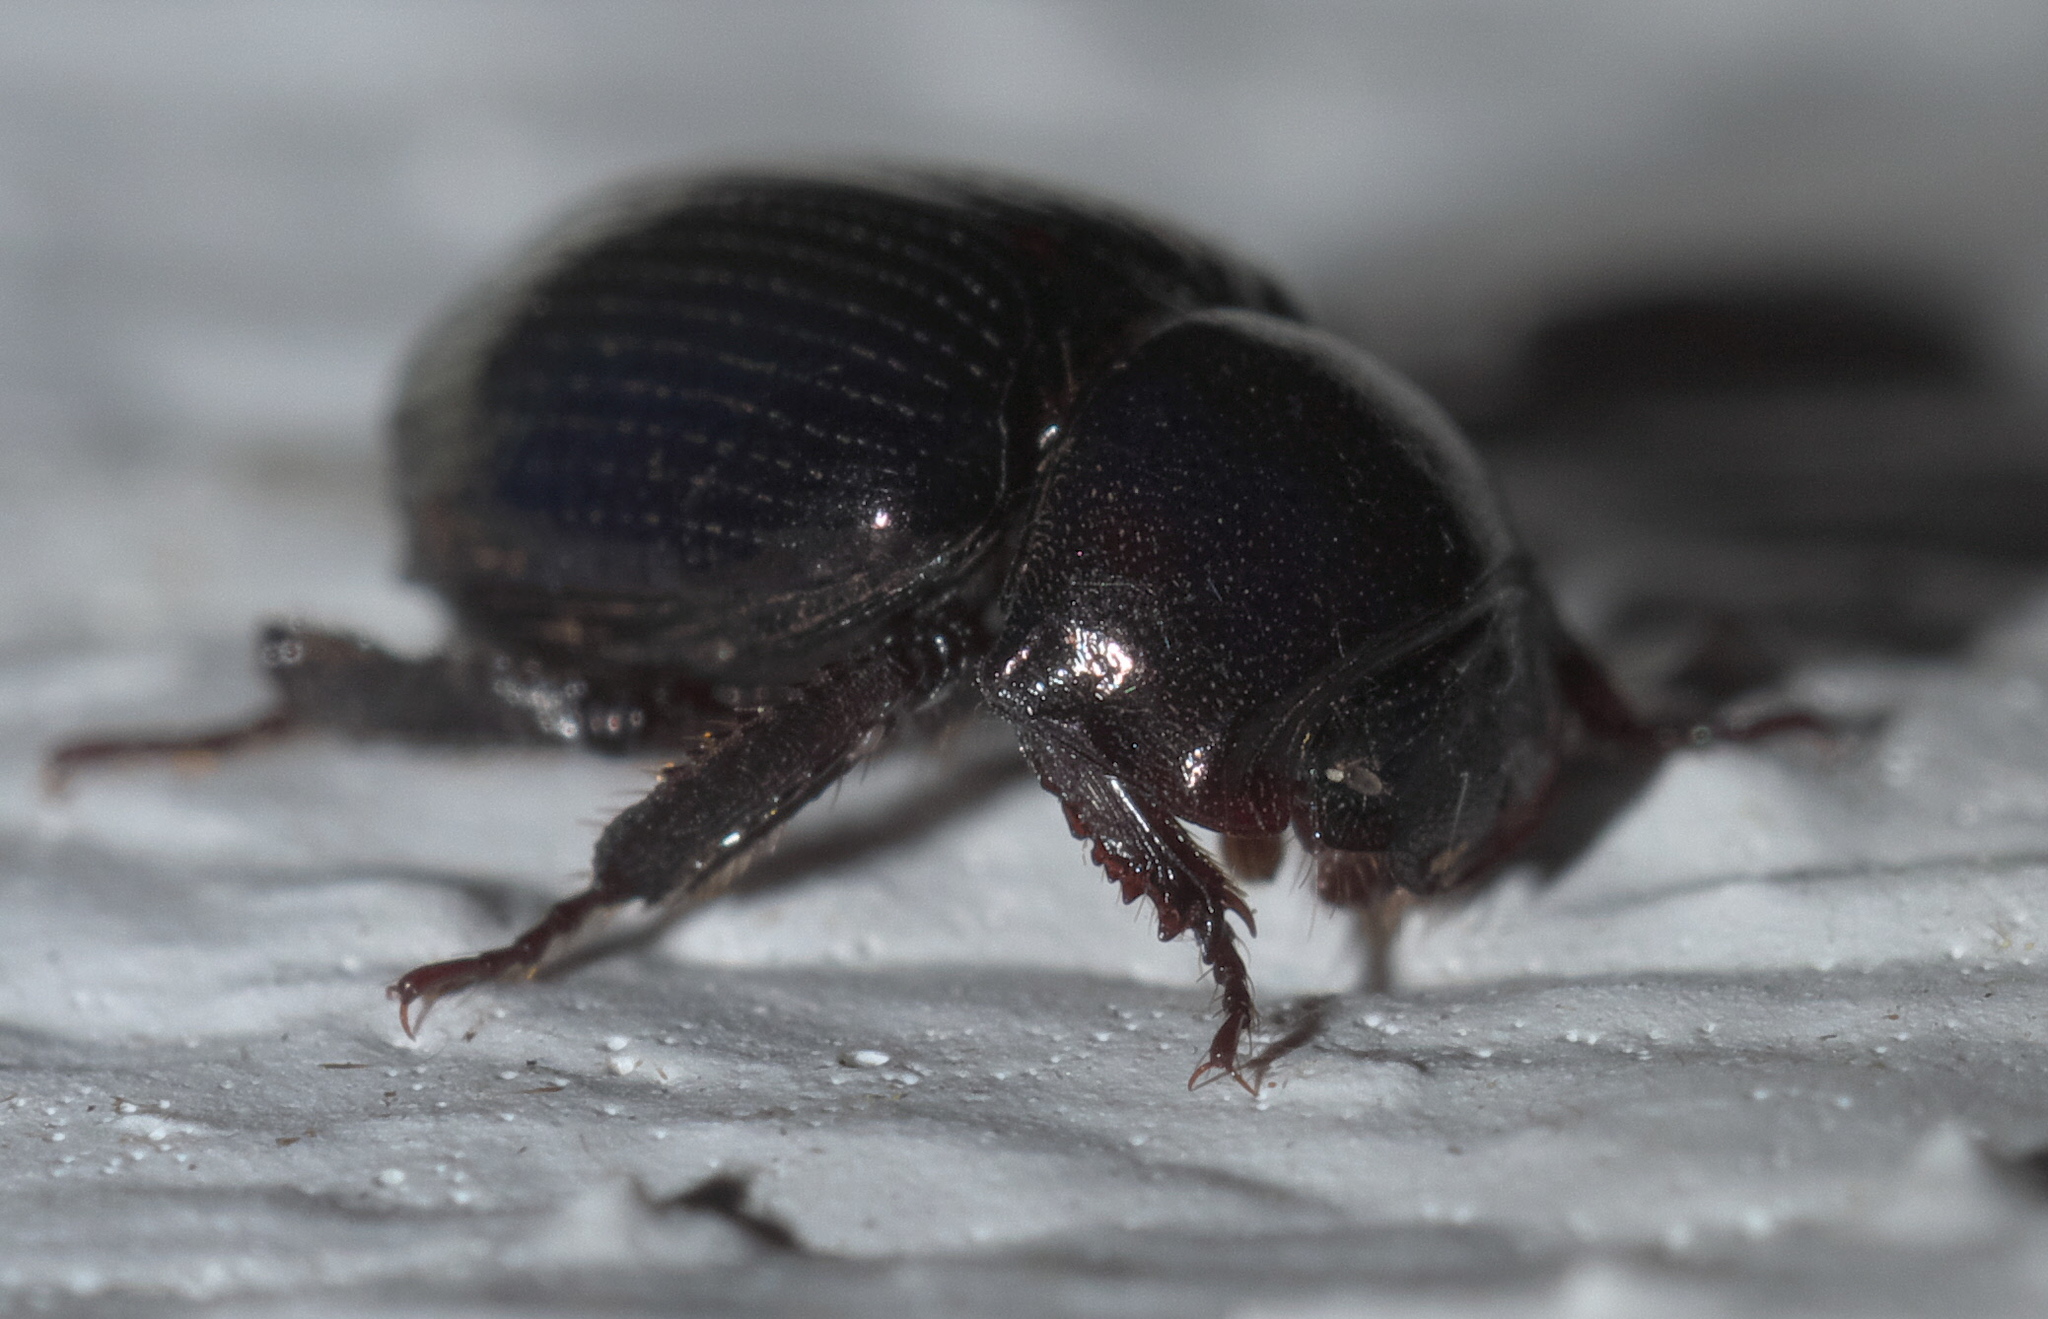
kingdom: Animalia
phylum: Arthropoda
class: Insecta
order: Coleoptera
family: Hybosoridae
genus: Germarostes
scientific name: Germarostes aphodioides
